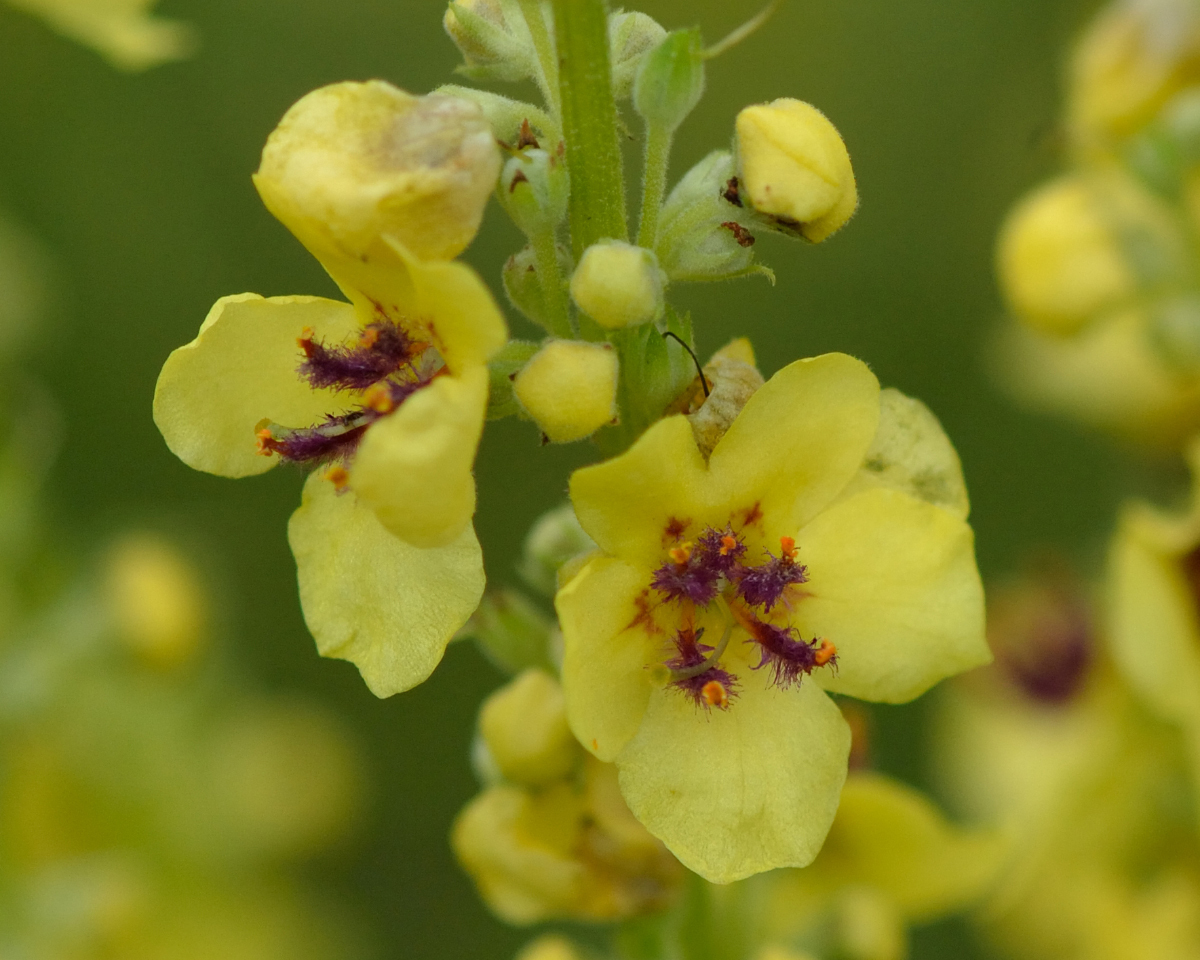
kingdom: Plantae
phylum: Tracheophyta
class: Magnoliopsida
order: Lamiales
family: Scrophulariaceae
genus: Verbascum
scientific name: Verbascum nigrum
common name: Dark mullein
